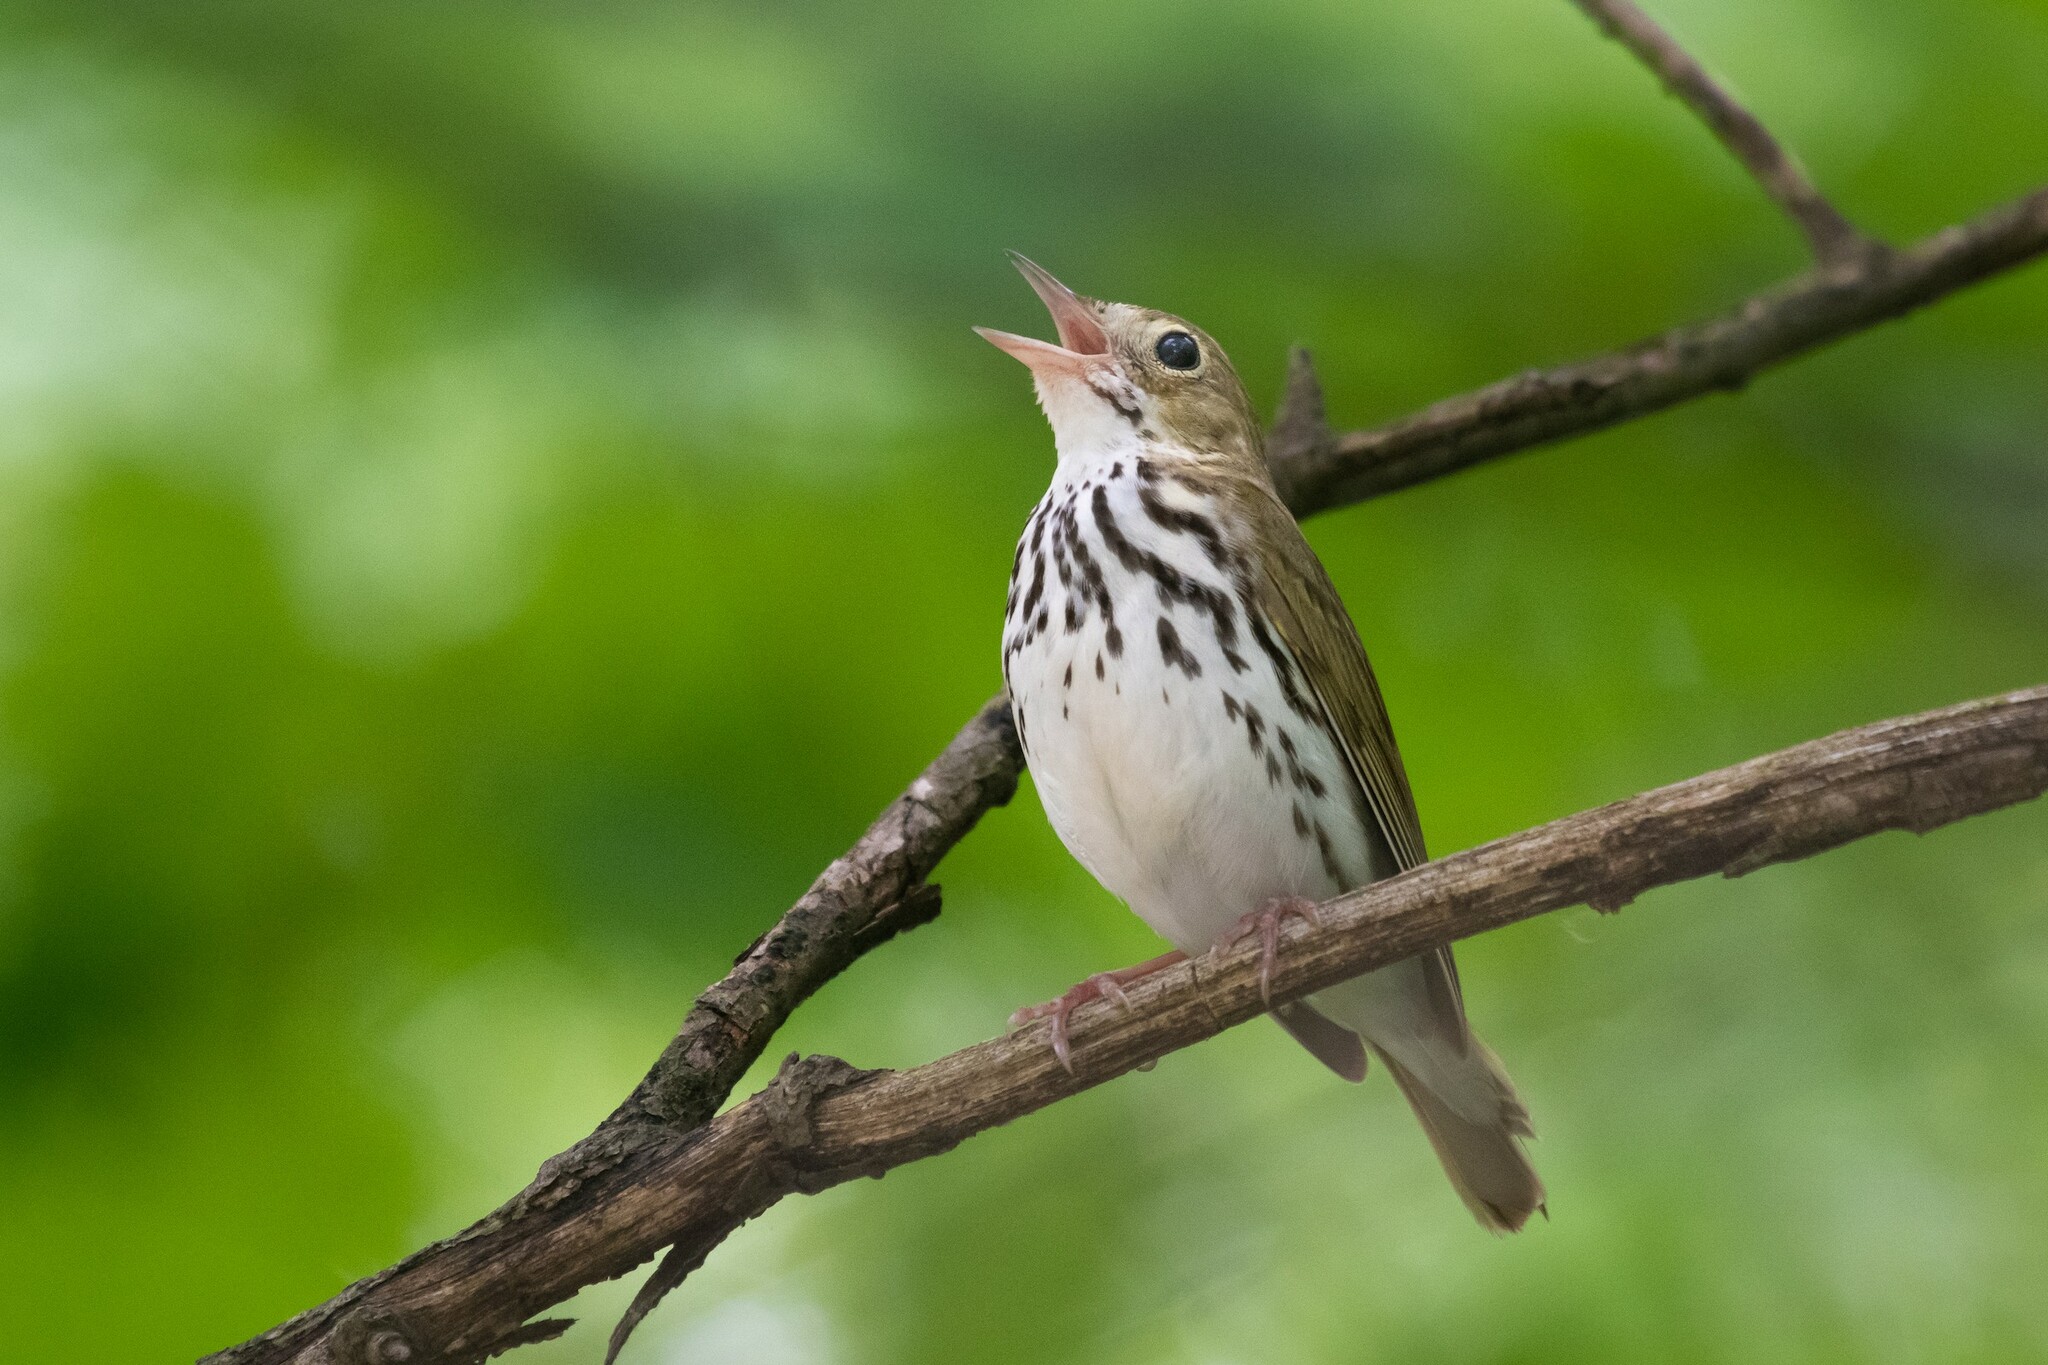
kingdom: Animalia
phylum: Chordata
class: Aves
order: Passeriformes
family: Parulidae
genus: Seiurus
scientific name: Seiurus aurocapilla
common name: Ovenbird
